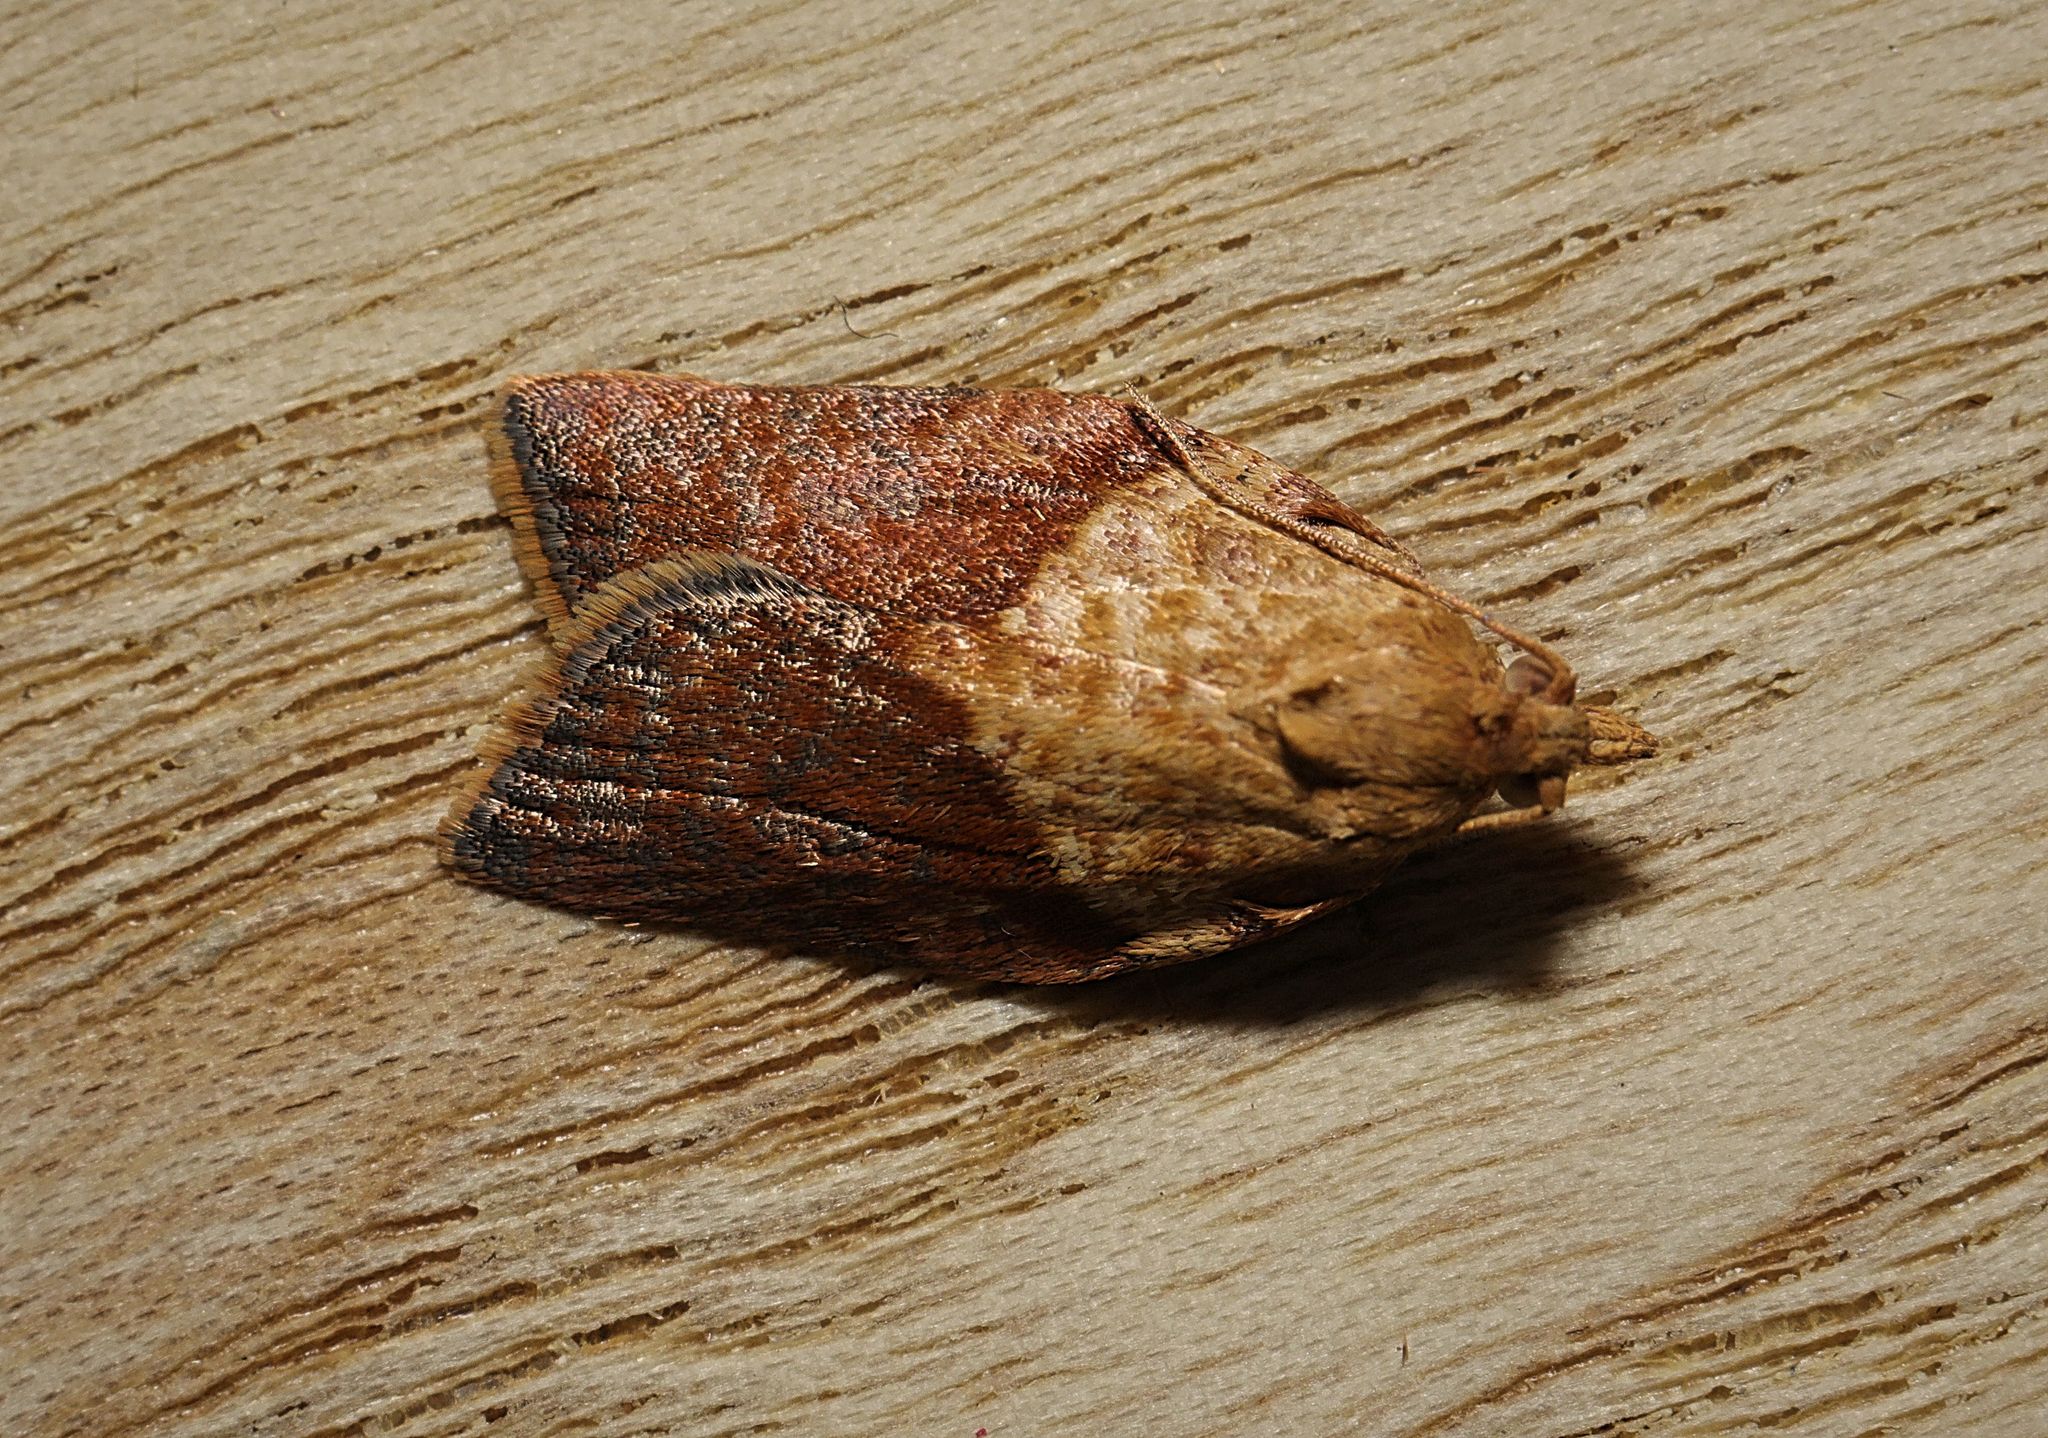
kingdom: Animalia
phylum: Arthropoda
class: Insecta
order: Lepidoptera
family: Tortricidae
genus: Epiphyas
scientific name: Epiphyas postvittana
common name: Light brown apple moth
